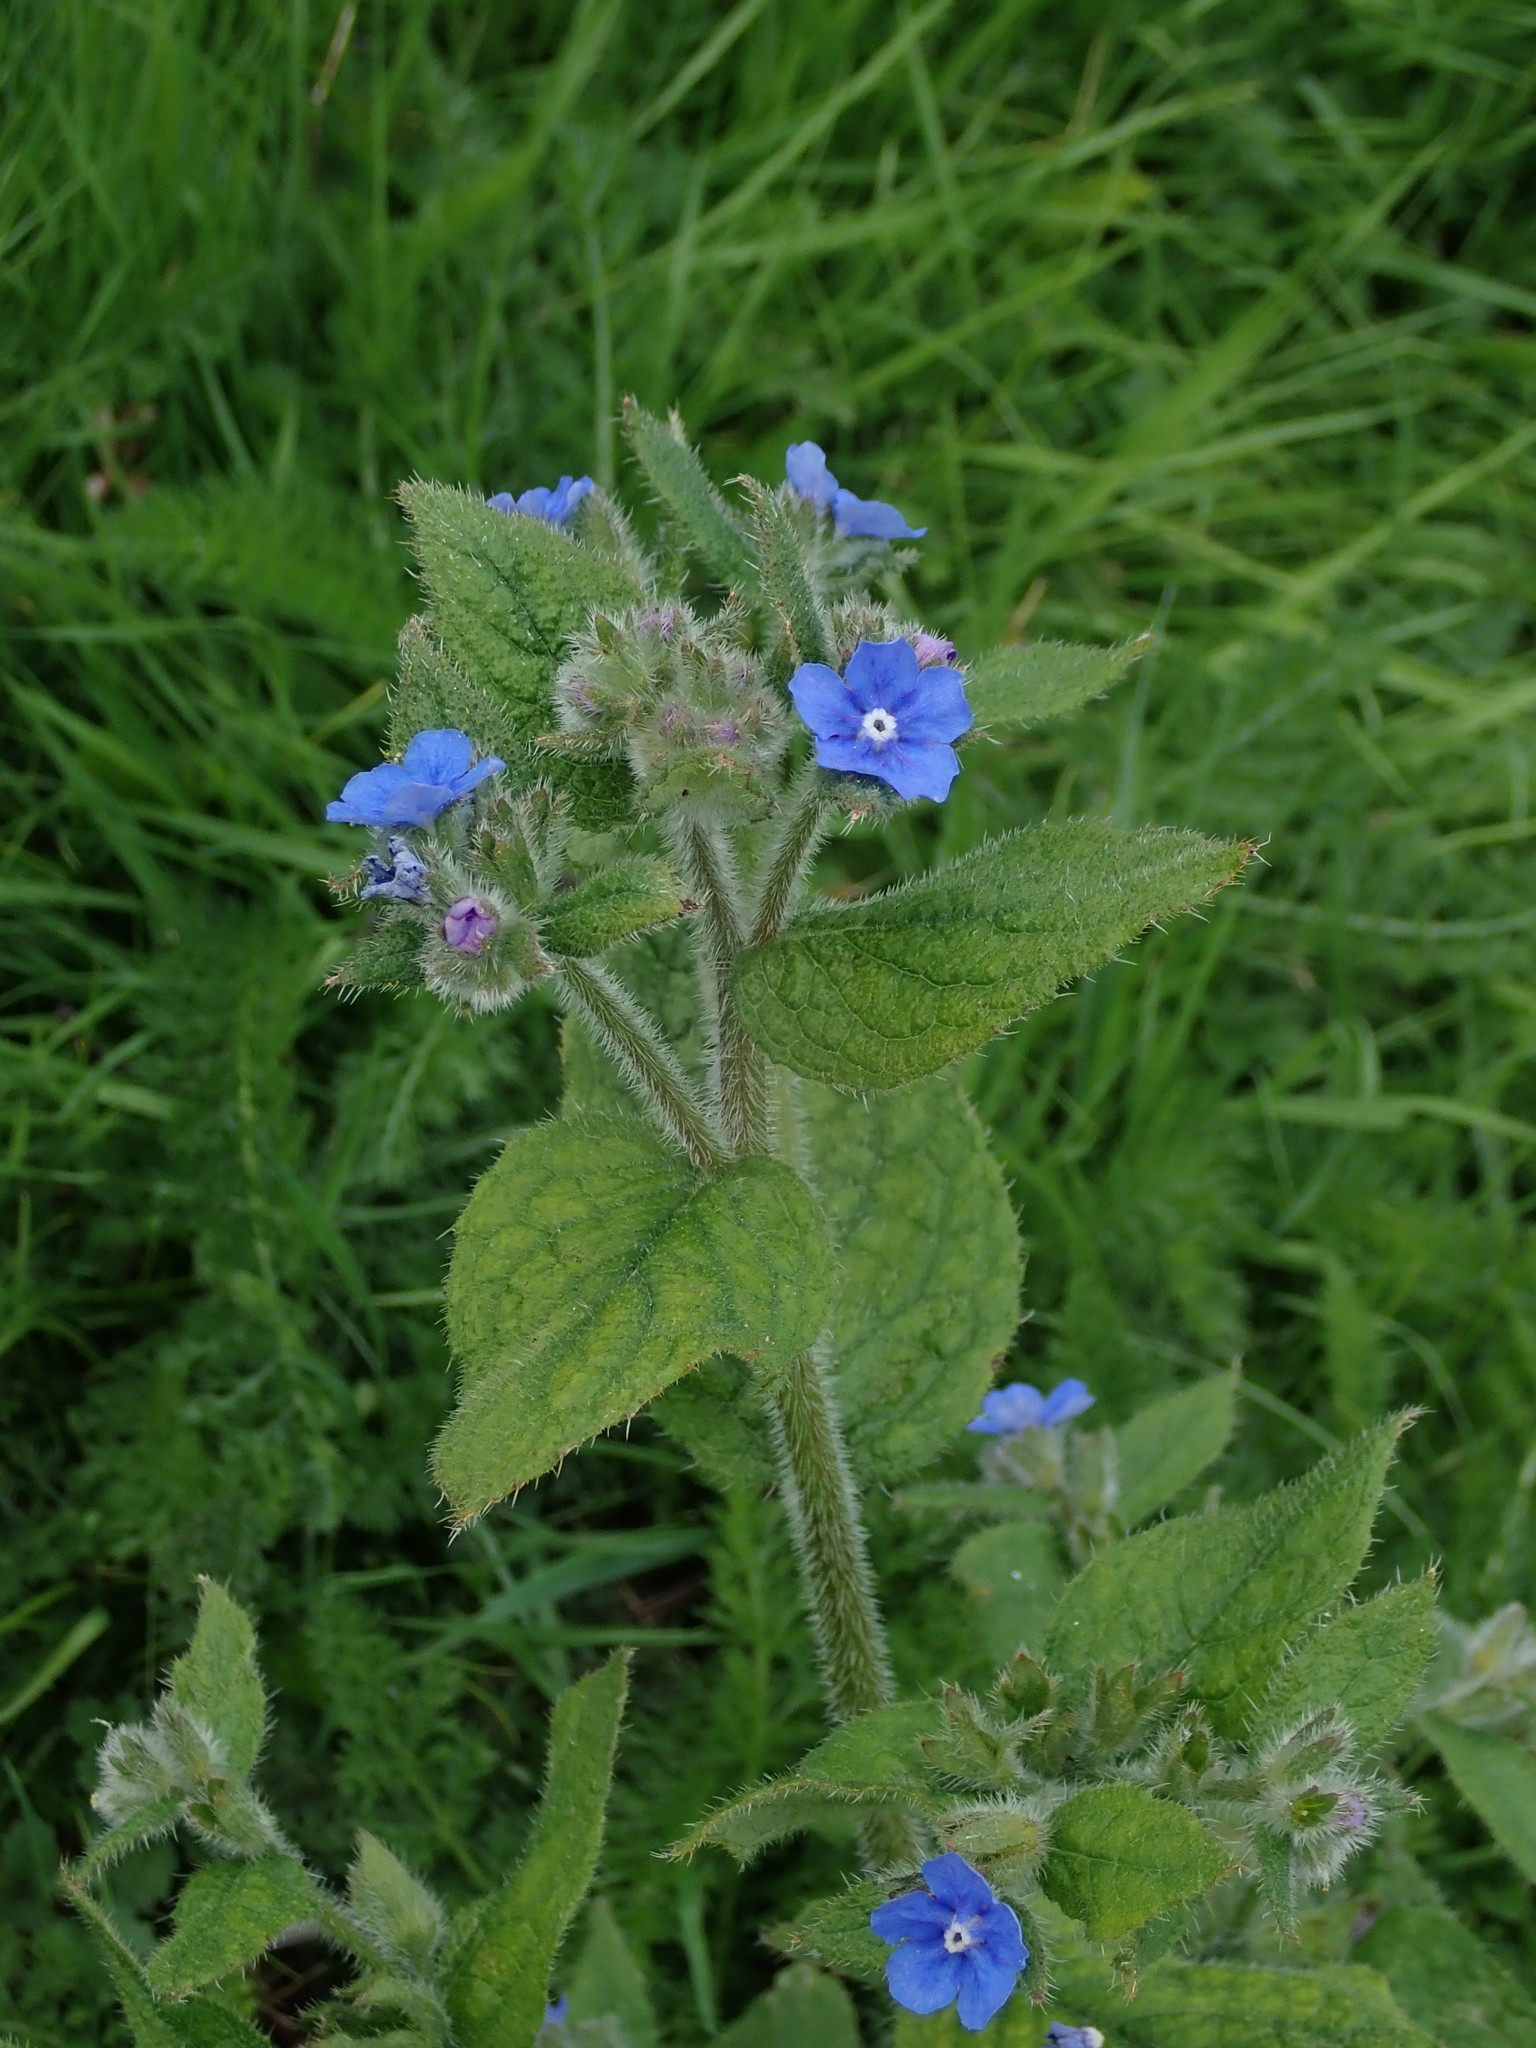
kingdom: Plantae
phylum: Tracheophyta
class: Magnoliopsida
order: Boraginales
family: Boraginaceae
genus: Pentaglottis
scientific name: Pentaglottis sempervirens
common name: Green alkanet
